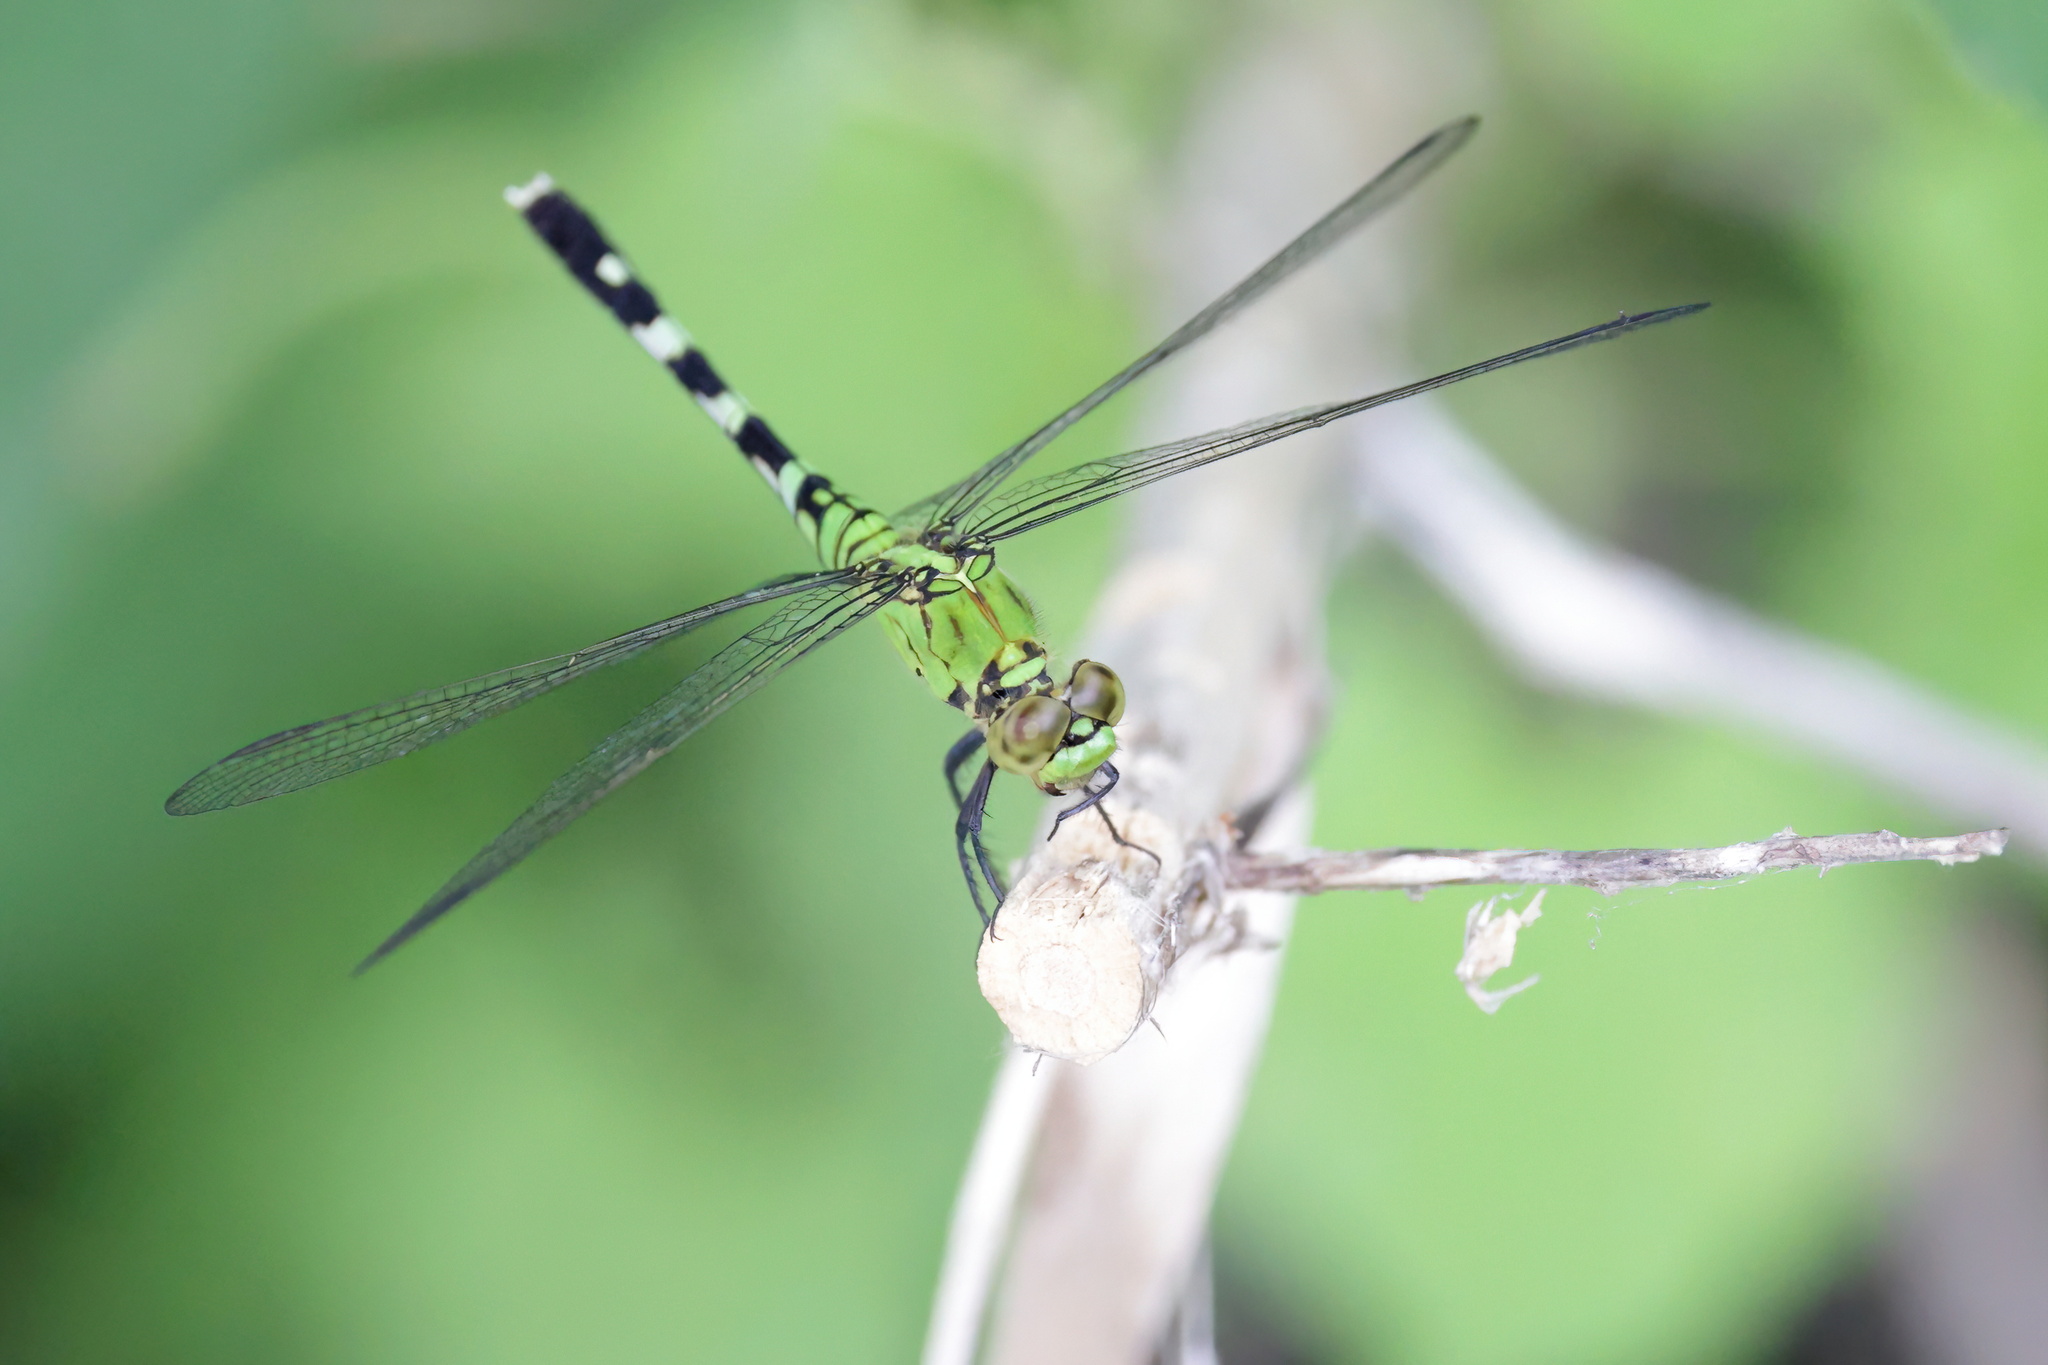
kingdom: Animalia
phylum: Arthropoda
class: Insecta
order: Odonata
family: Libellulidae
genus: Erythemis
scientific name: Erythemis simplicicollis
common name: Eastern pondhawk
